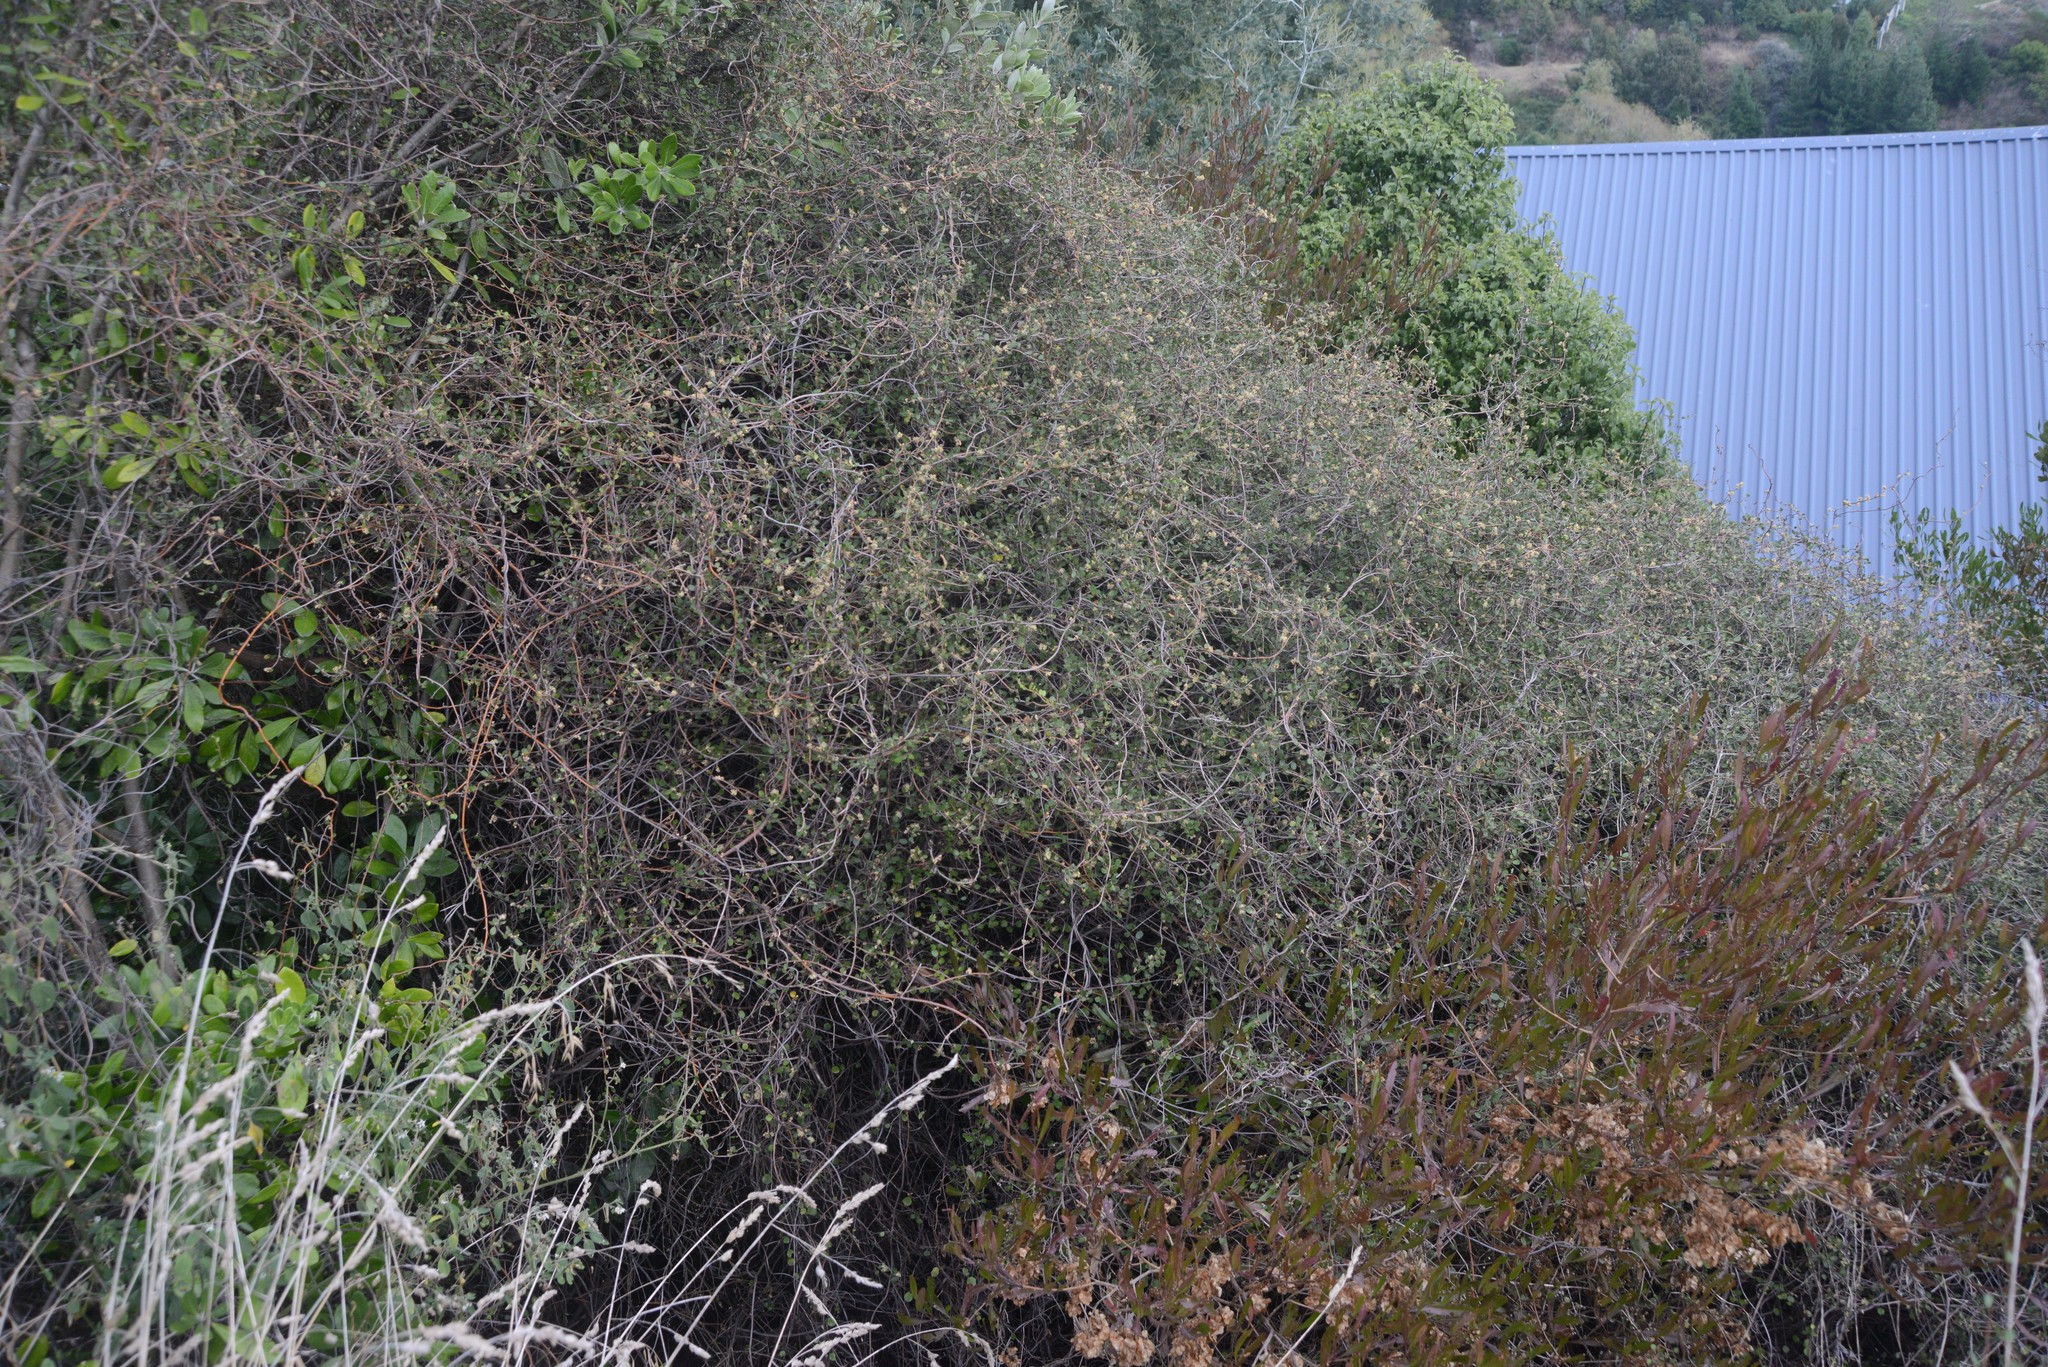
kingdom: Plantae
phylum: Tracheophyta
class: Magnoliopsida
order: Caryophyllales
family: Polygonaceae
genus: Muehlenbeckia
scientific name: Muehlenbeckia complexa
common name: Wireplant
